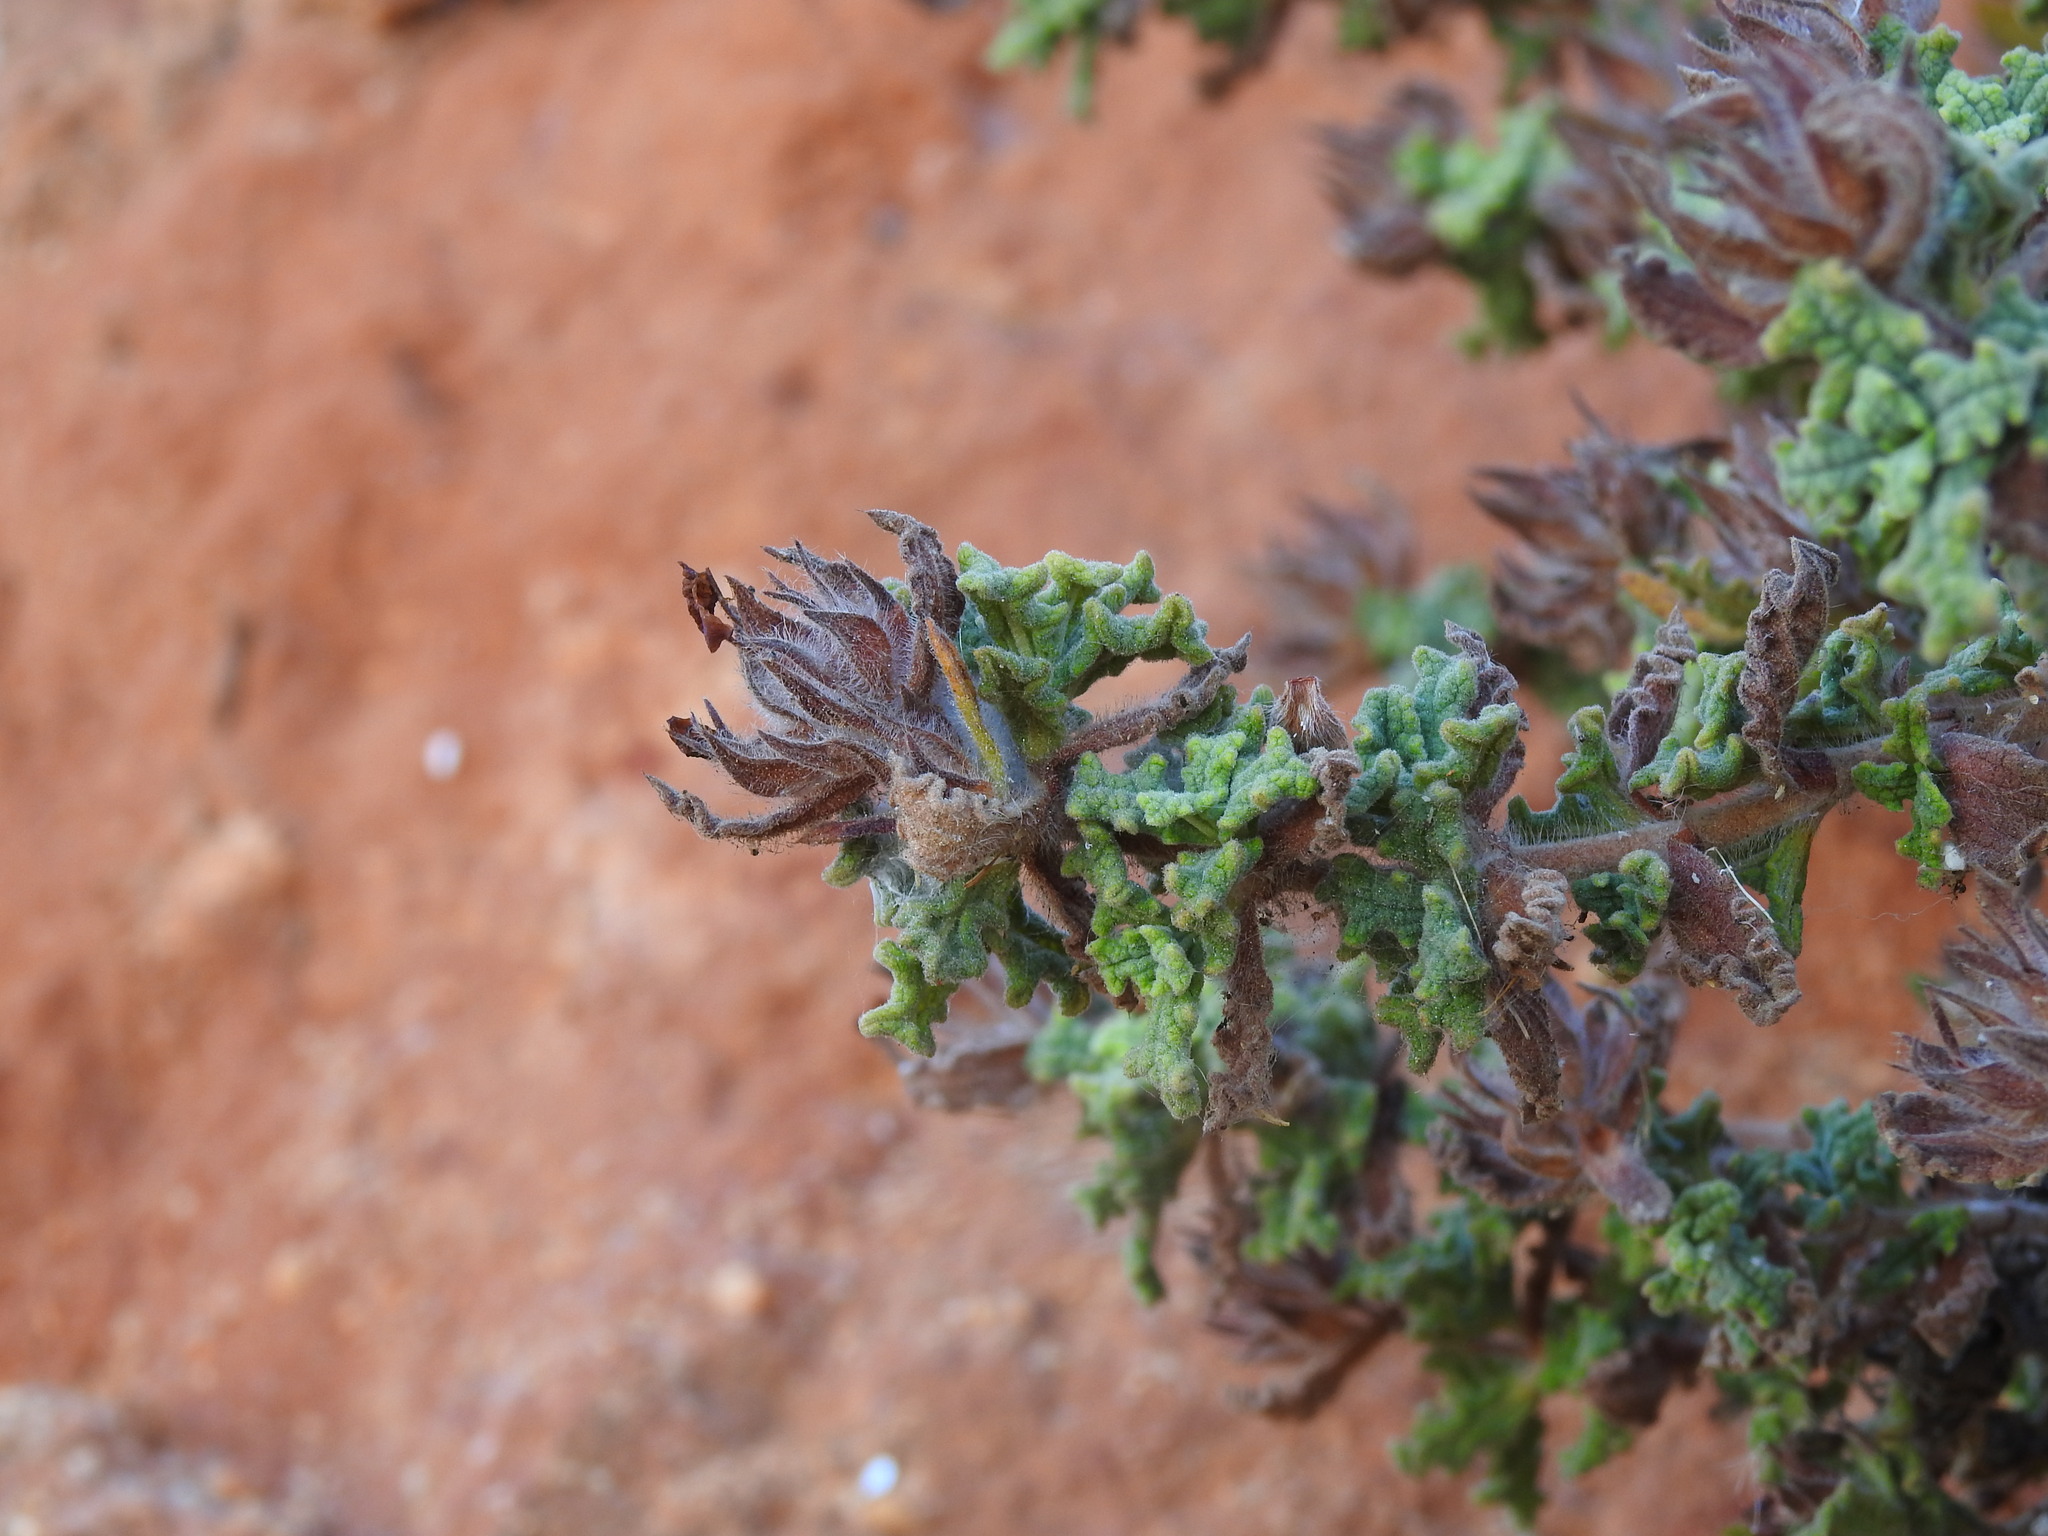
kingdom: Plantae
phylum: Tracheophyta
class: Magnoliopsida
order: Malvales
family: Cistaceae
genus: Cistus
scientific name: Cistus crispus
